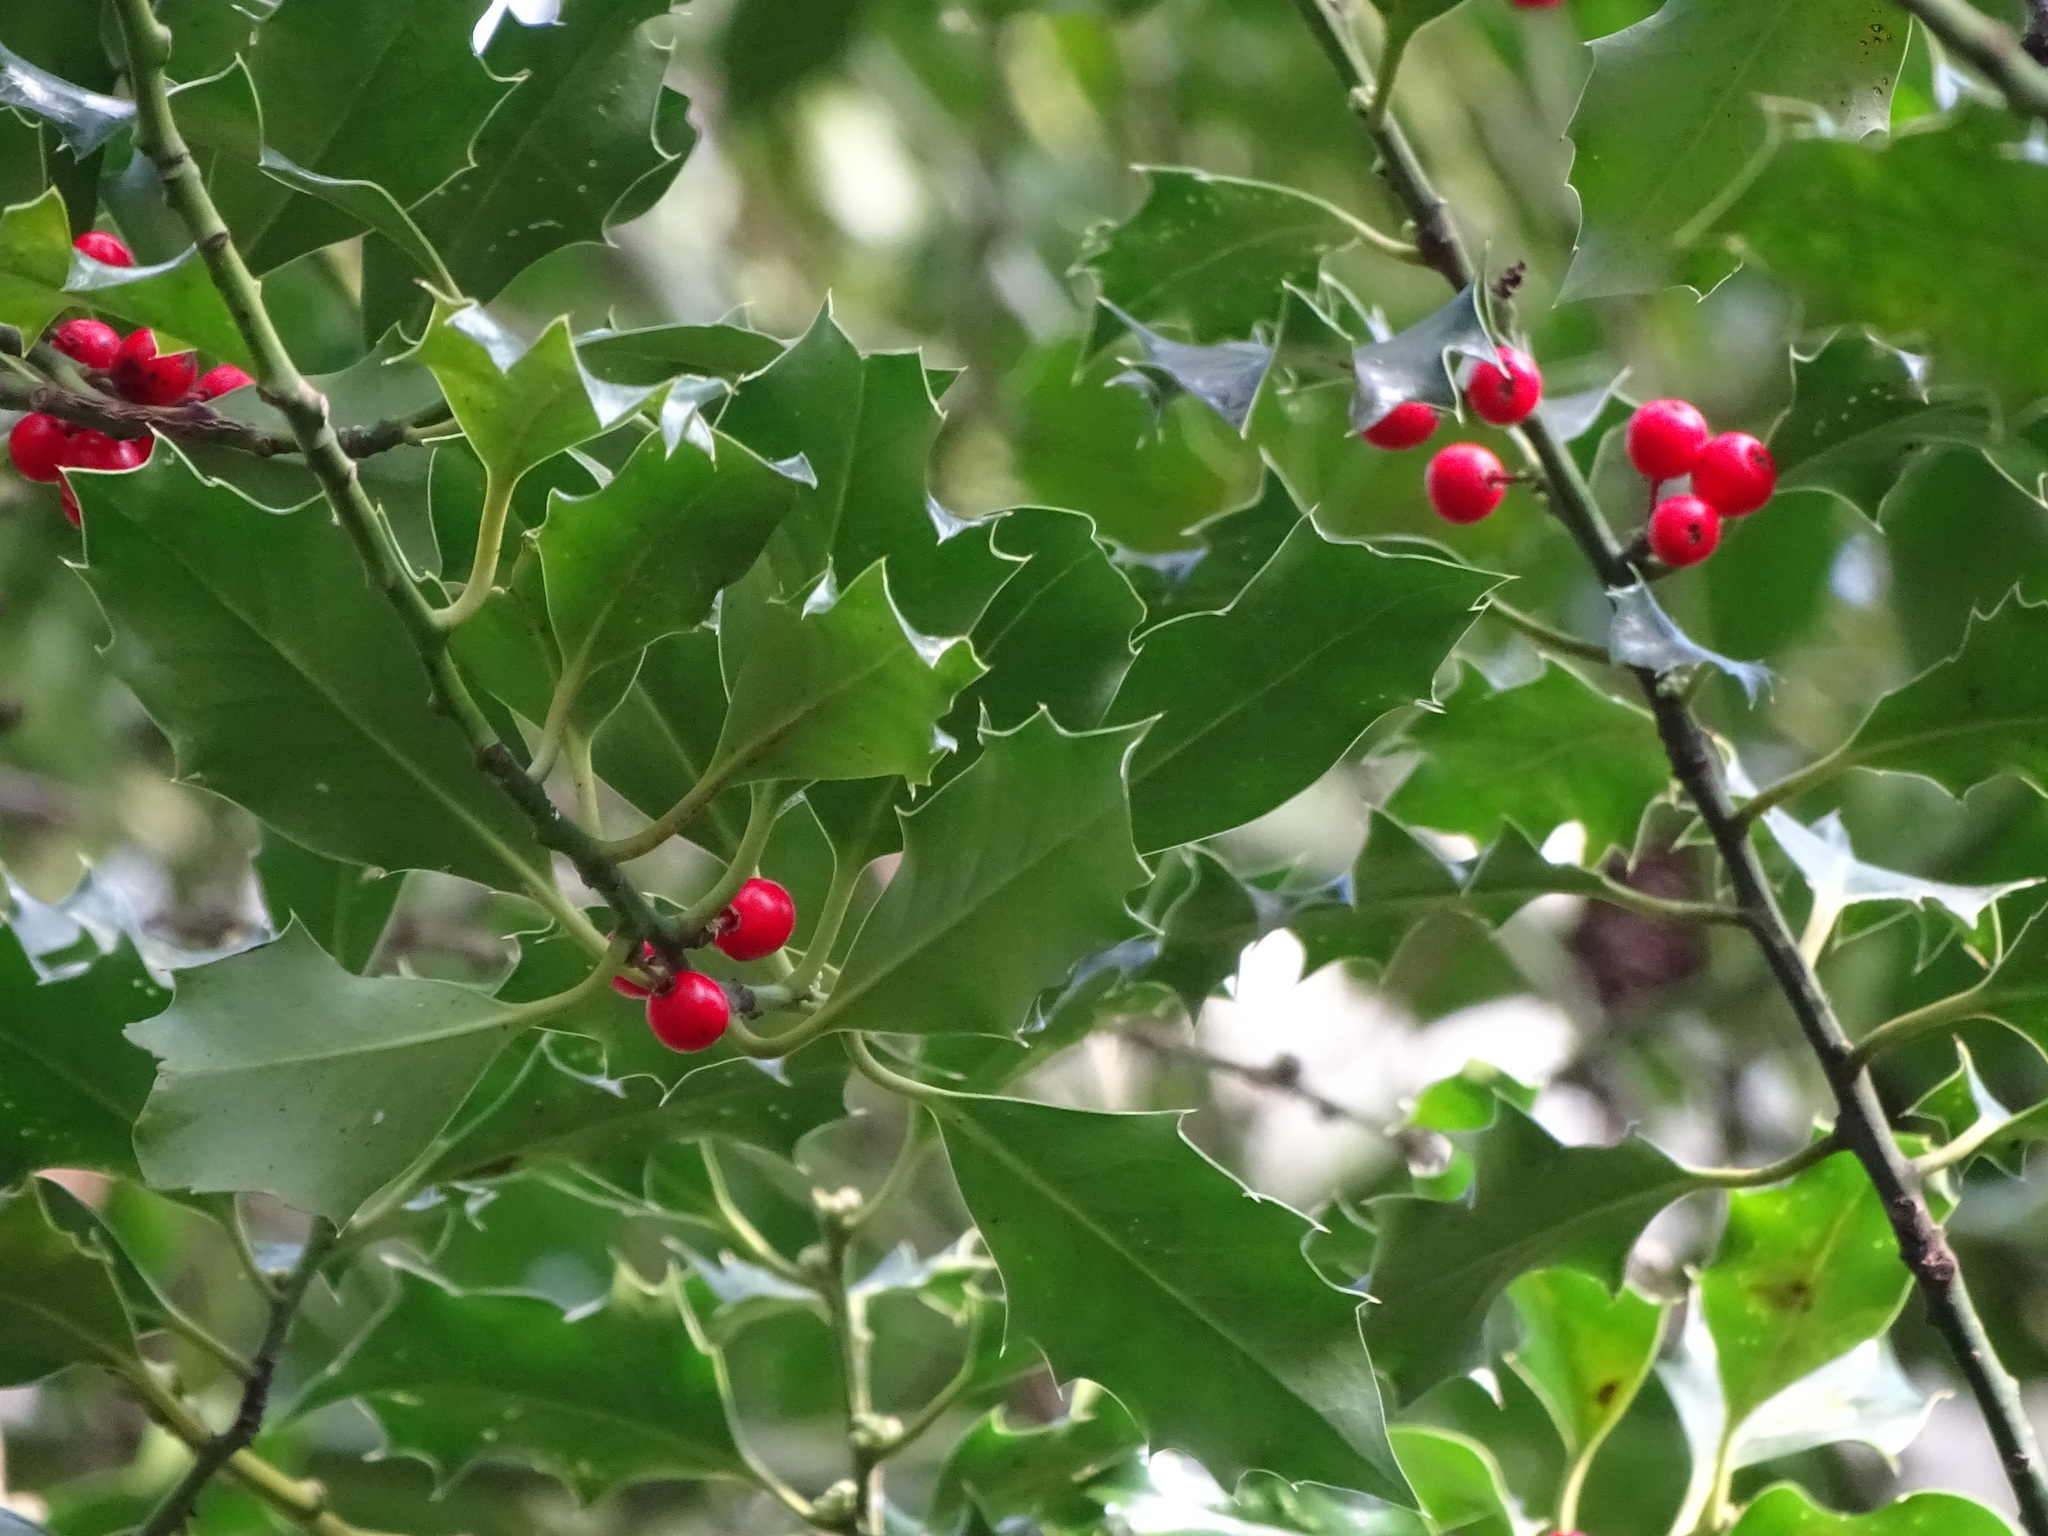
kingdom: Plantae
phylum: Tracheophyta
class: Magnoliopsida
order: Aquifoliales
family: Aquifoliaceae
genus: Ilex
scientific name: Ilex aquifolium
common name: English holly
